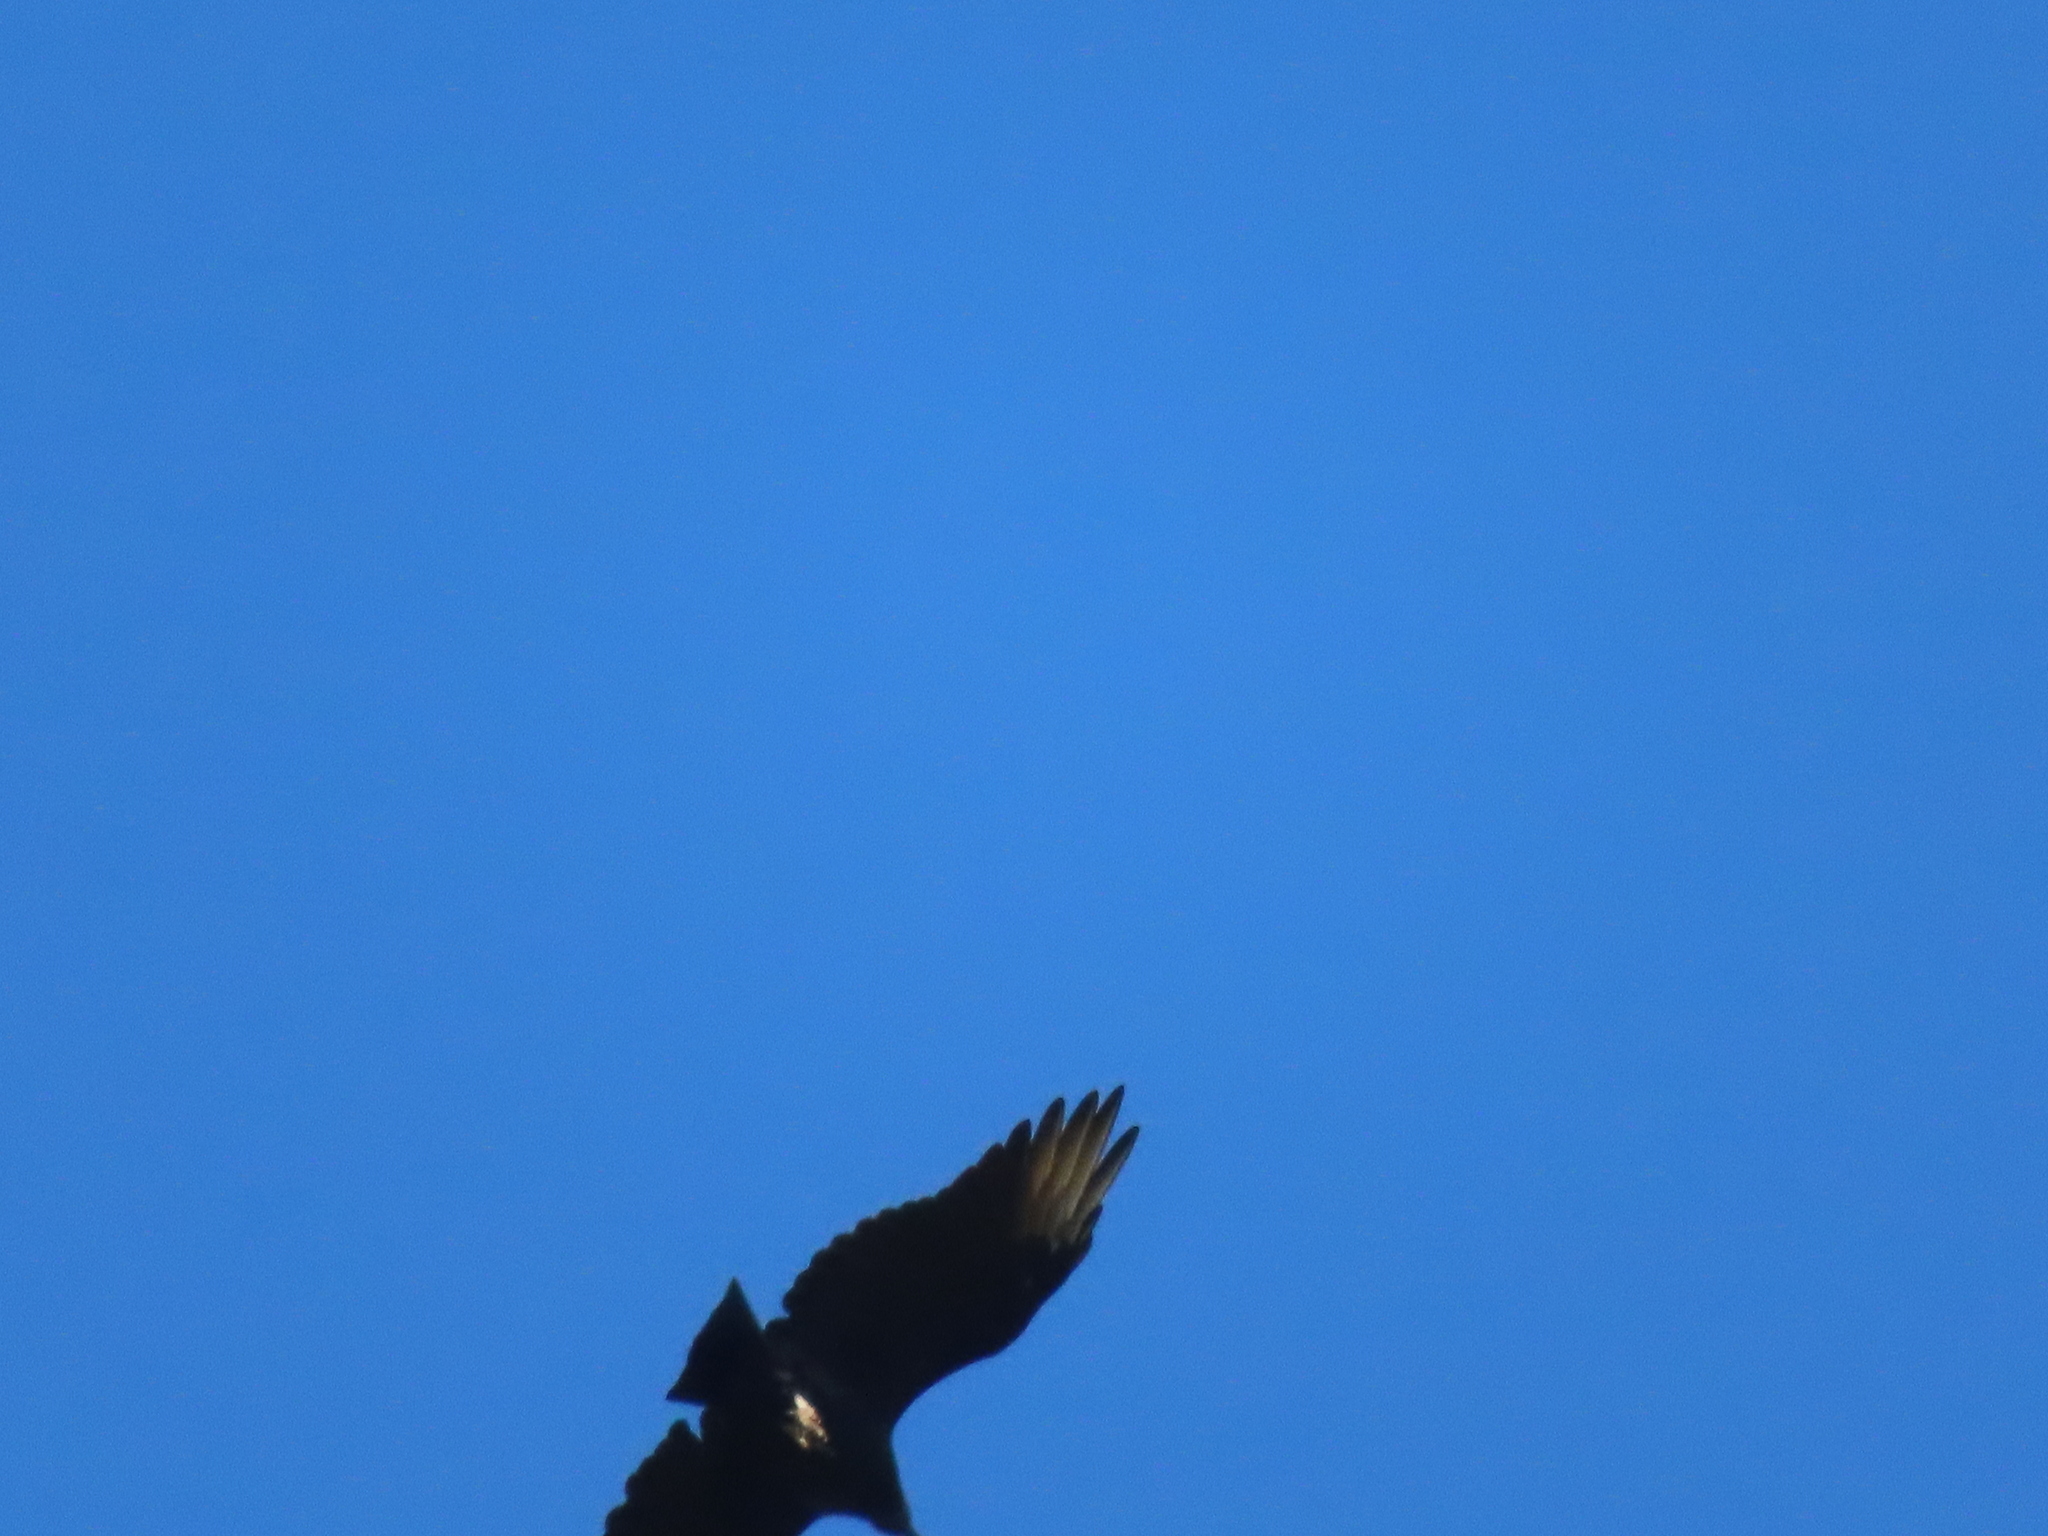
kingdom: Animalia
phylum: Chordata
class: Aves
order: Accipitriformes
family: Cathartidae
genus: Coragyps
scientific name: Coragyps atratus
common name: Black vulture
